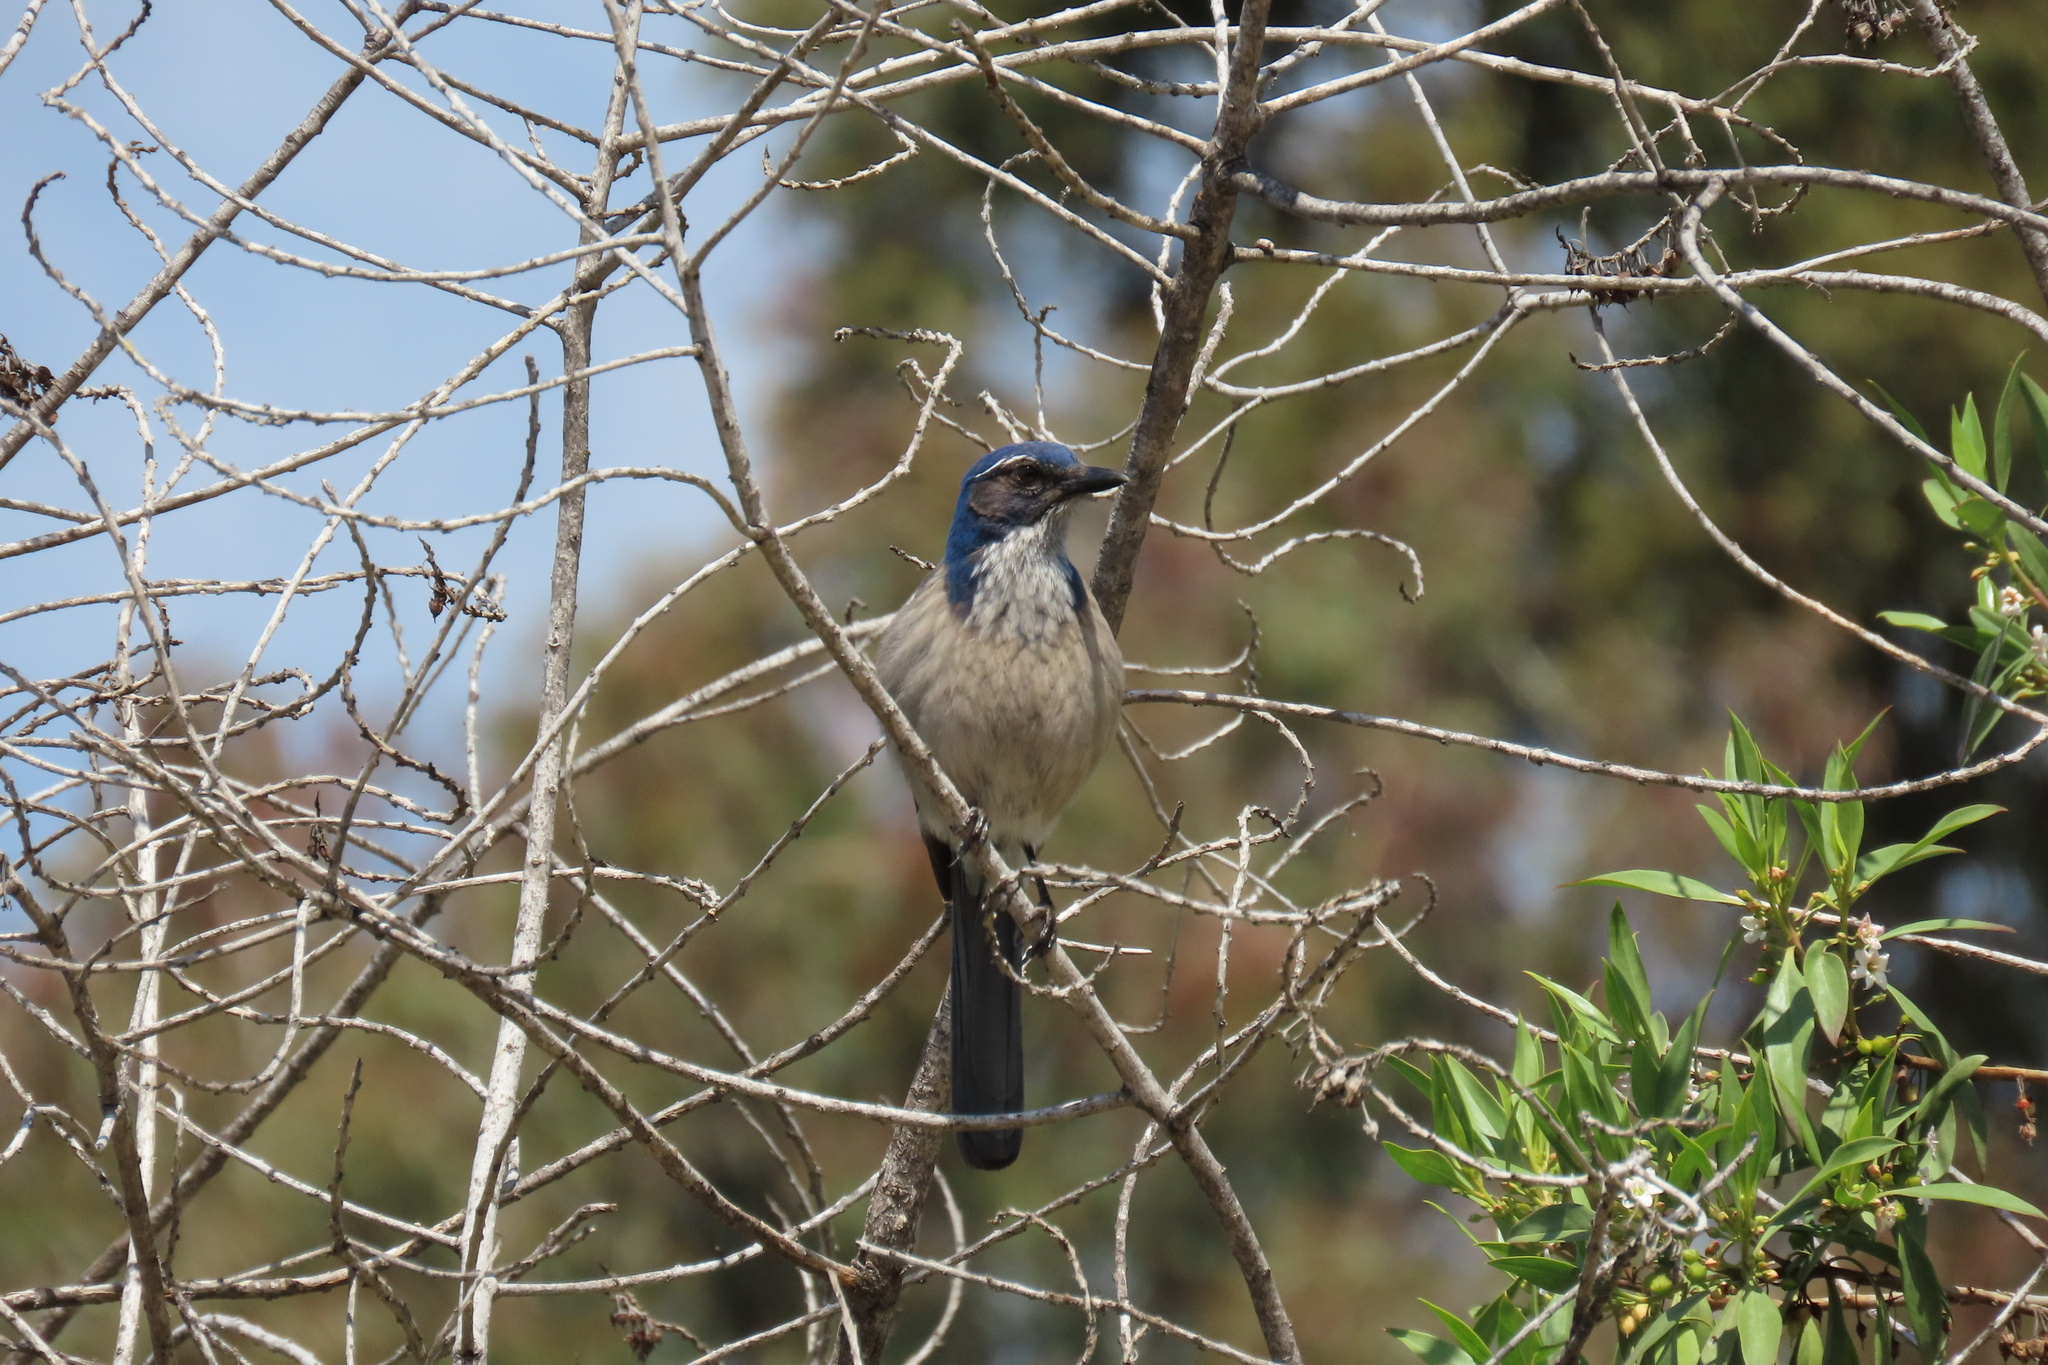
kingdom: Animalia
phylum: Chordata
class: Aves
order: Passeriformes
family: Corvidae
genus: Aphelocoma
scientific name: Aphelocoma californica
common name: California scrub-jay
